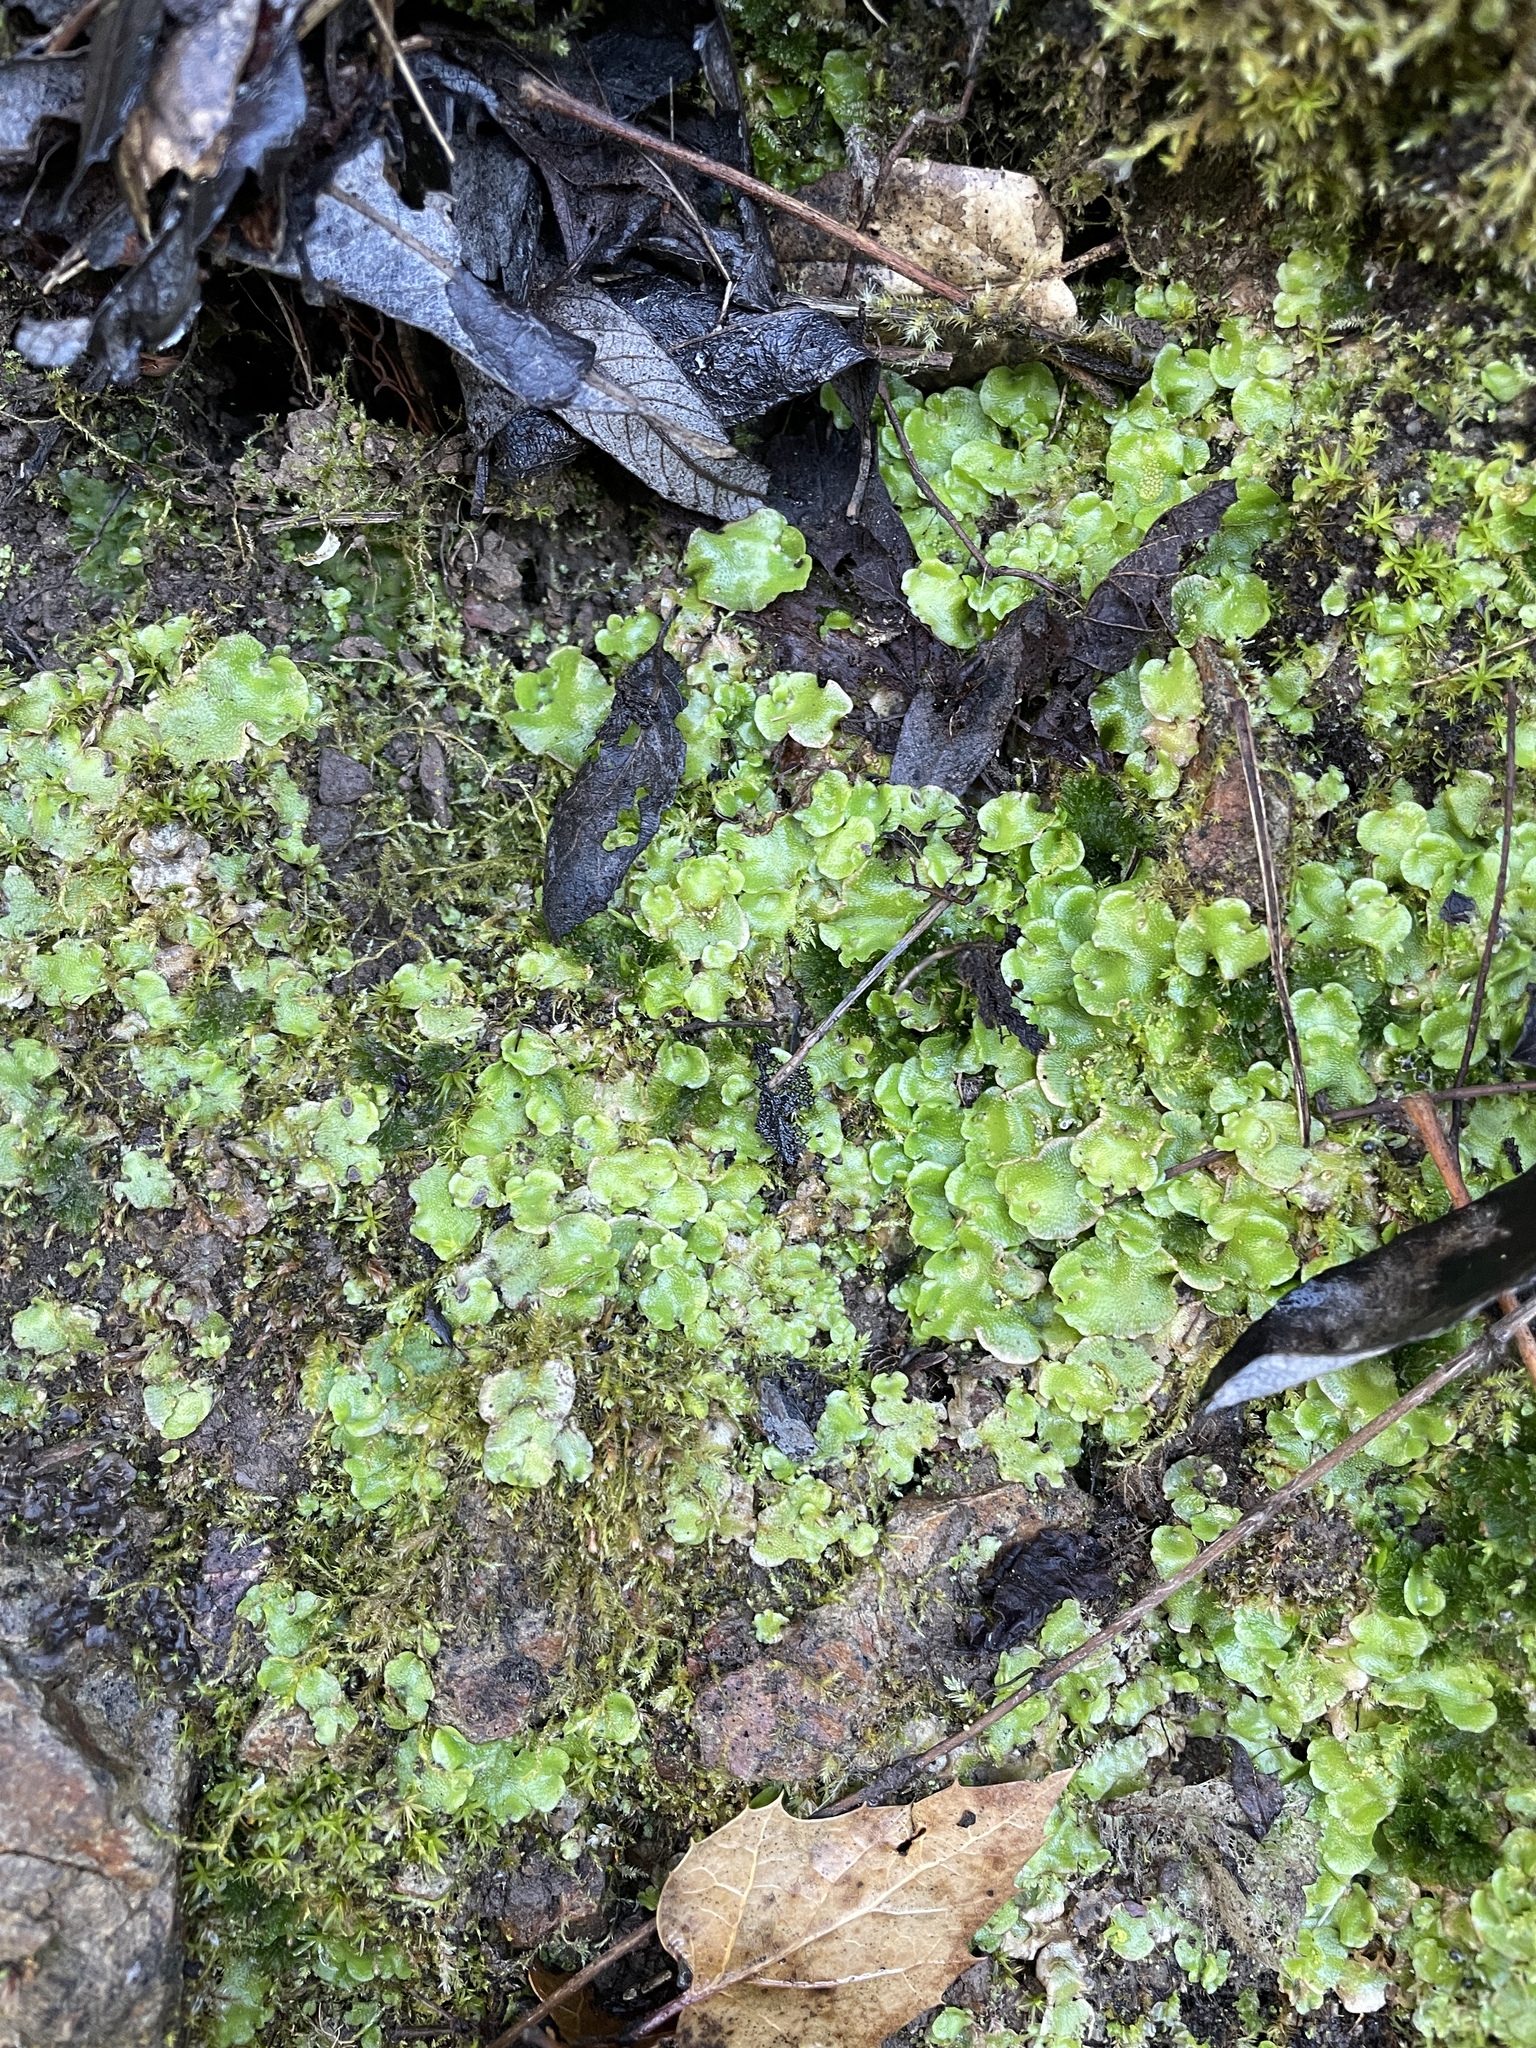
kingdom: Plantae
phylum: Marchantiophyta
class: Marchantiopsida
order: Lunulariales
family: Lunulariaceae
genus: Lunularia
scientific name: Lunularia cruciata
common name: Crescent-cup liverwort
